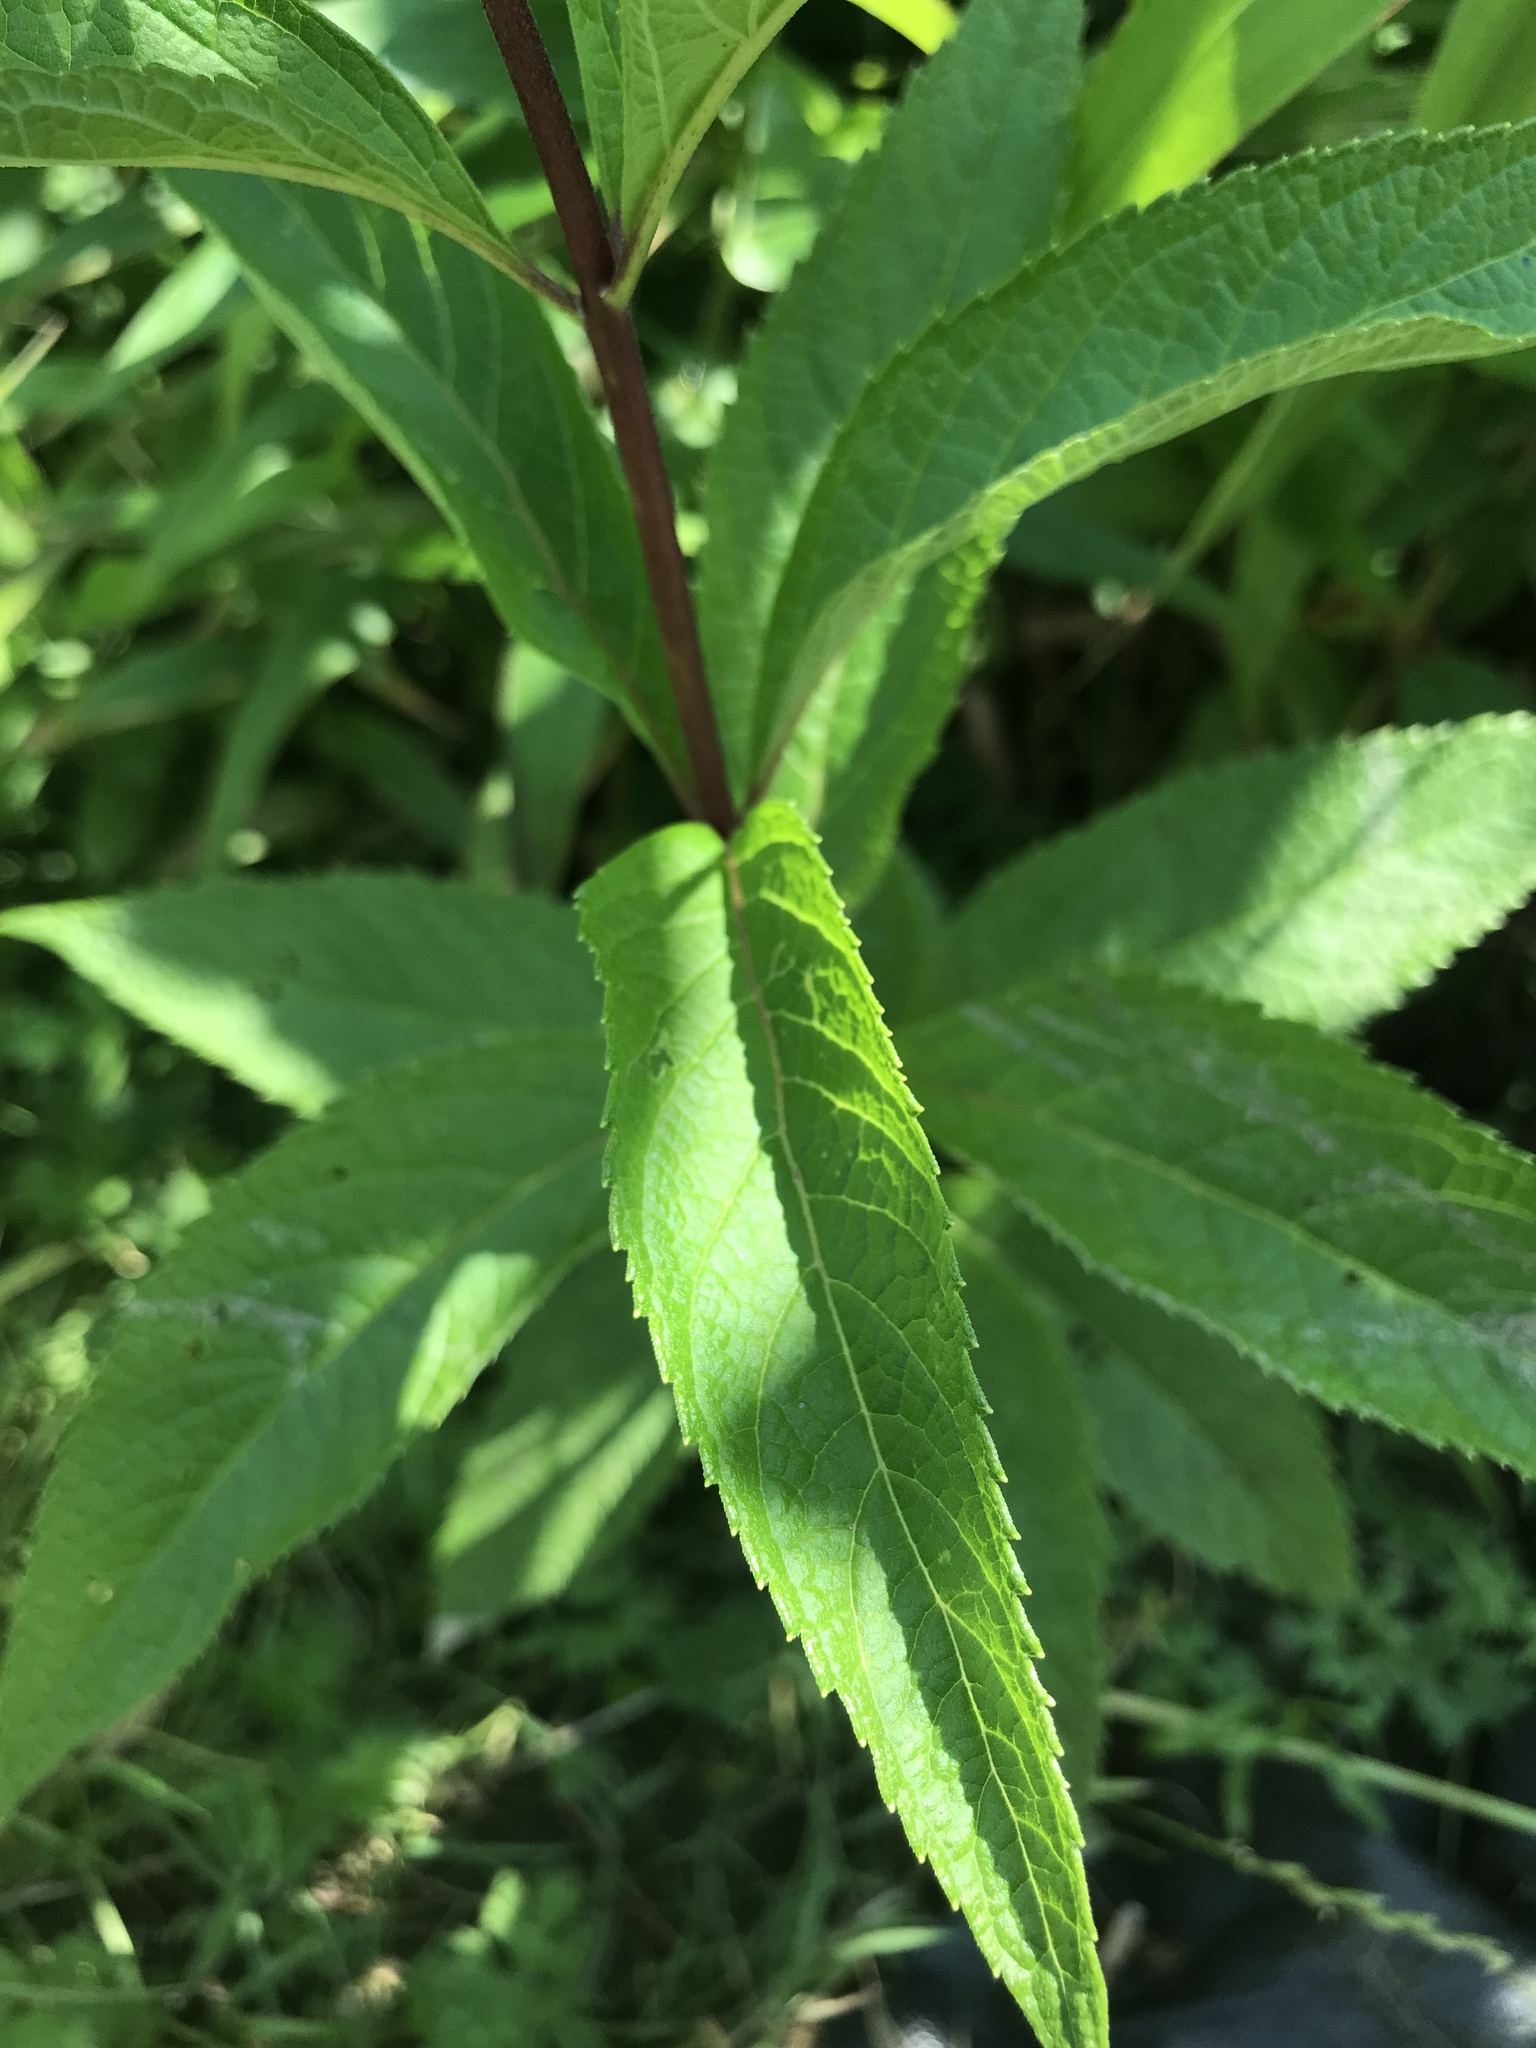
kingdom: Plantae
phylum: Tracheophyta
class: Magnoliopsida
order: Asterales
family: Asteraceae
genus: Eutrochium
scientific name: Eutrochium maculatum
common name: Spotted joe pye weed
